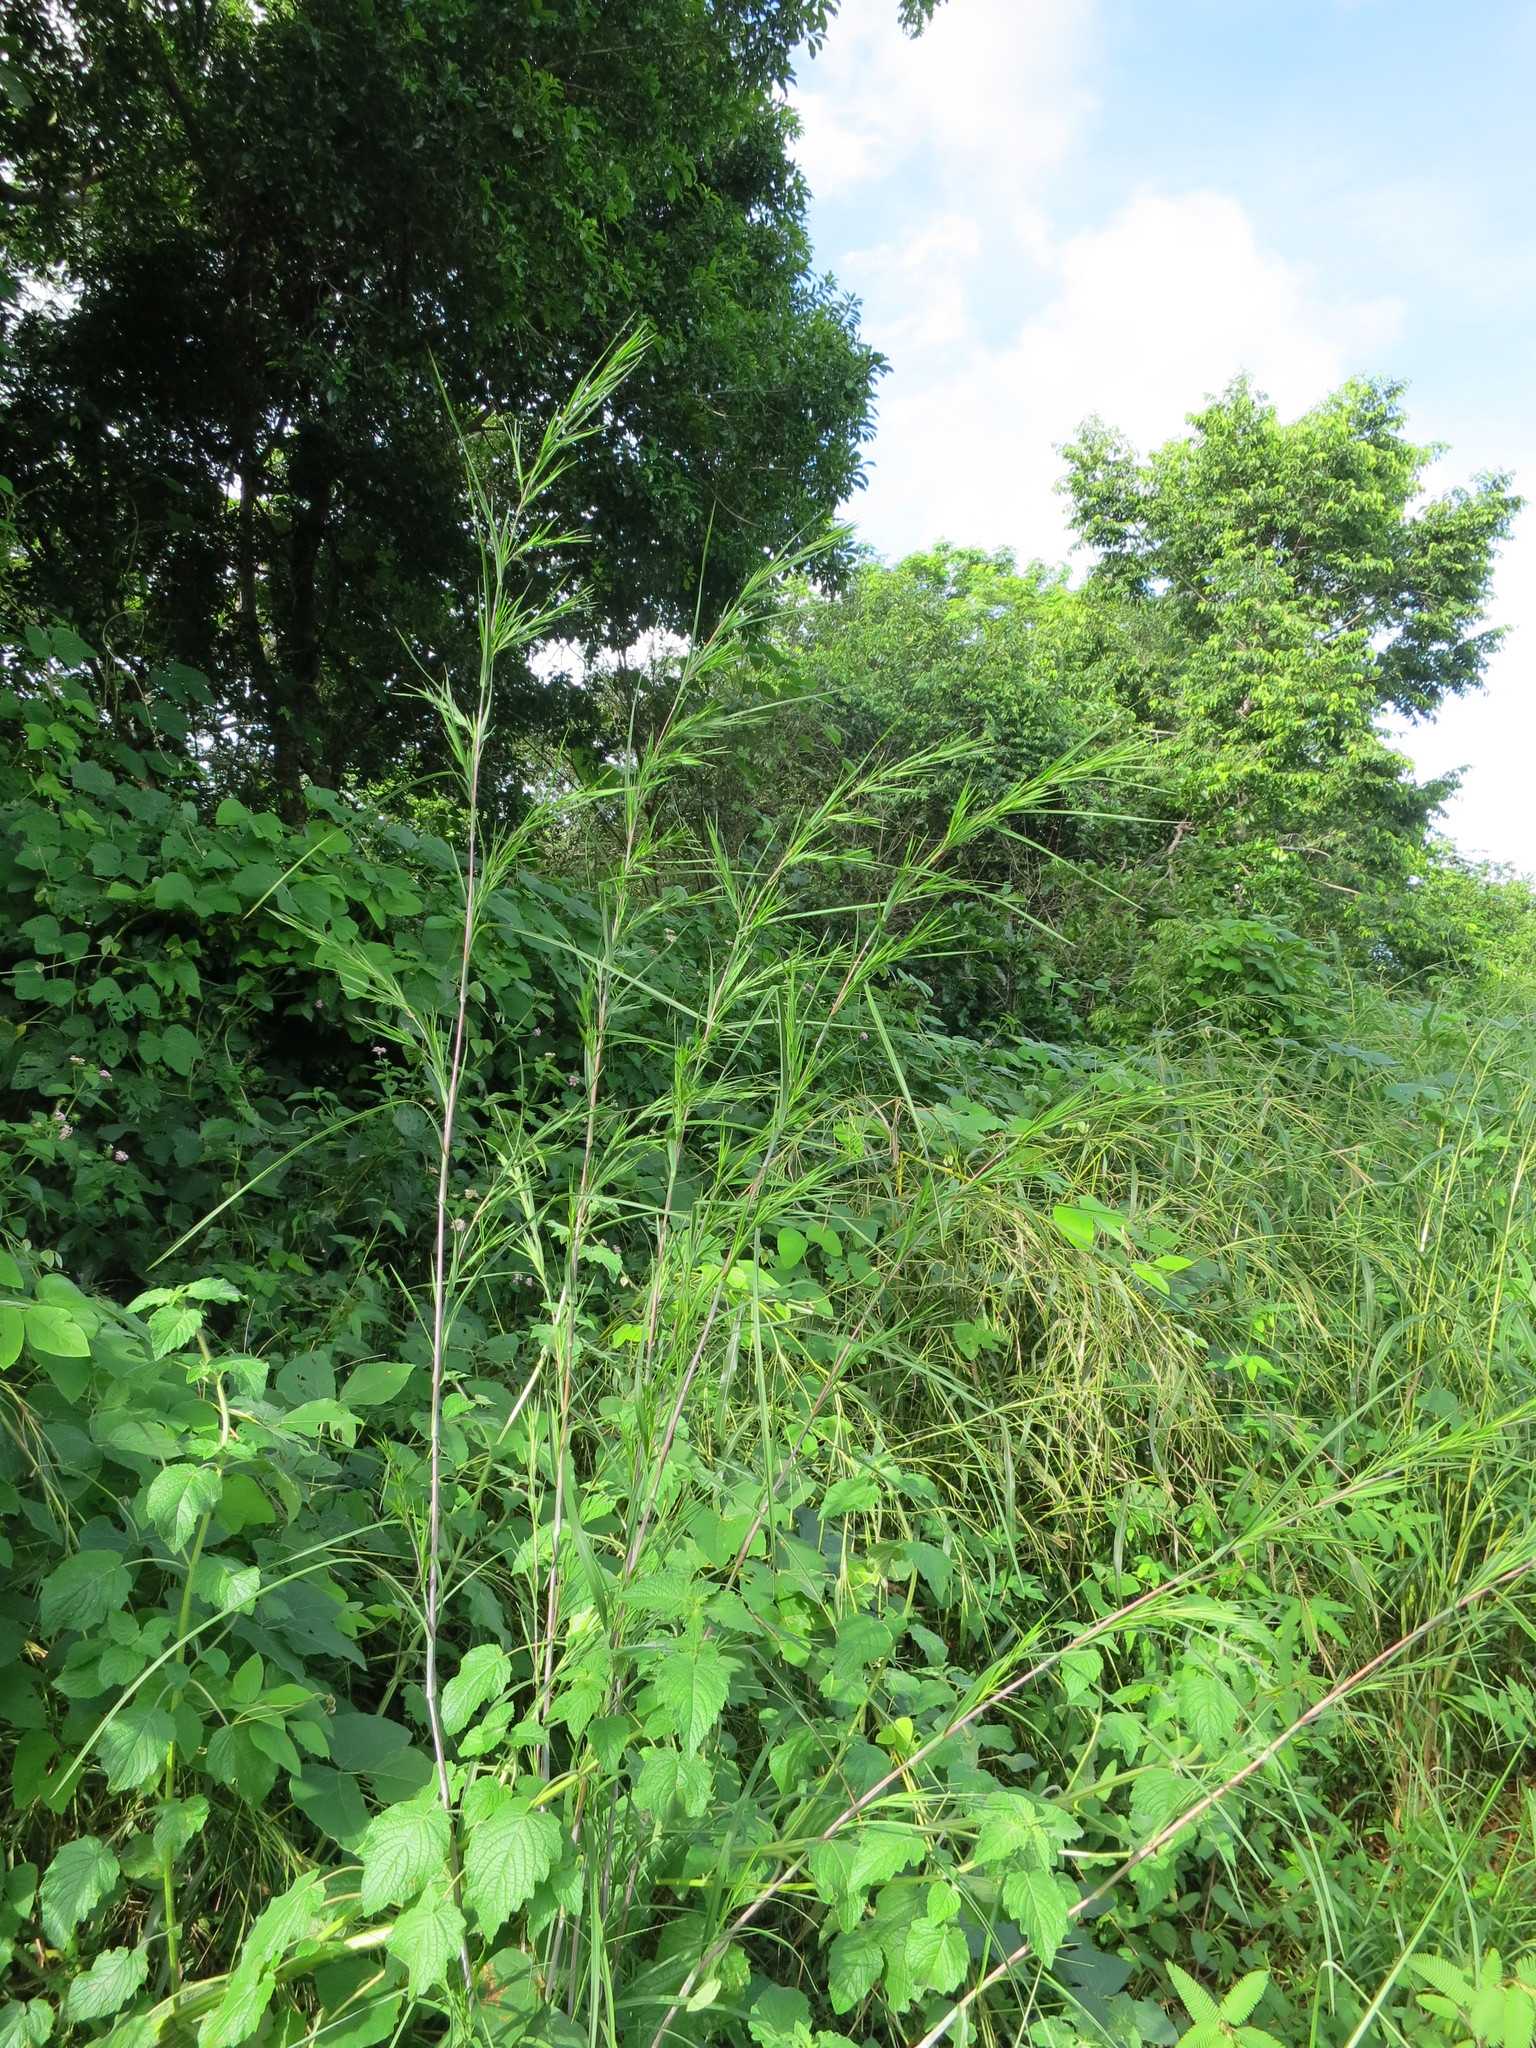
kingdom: Plantae
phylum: Tracheophyta
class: Liliopsida
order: Poales
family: Poaceae
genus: Themeda
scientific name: Themeda quadrivalvis
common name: Kangaroo grass
